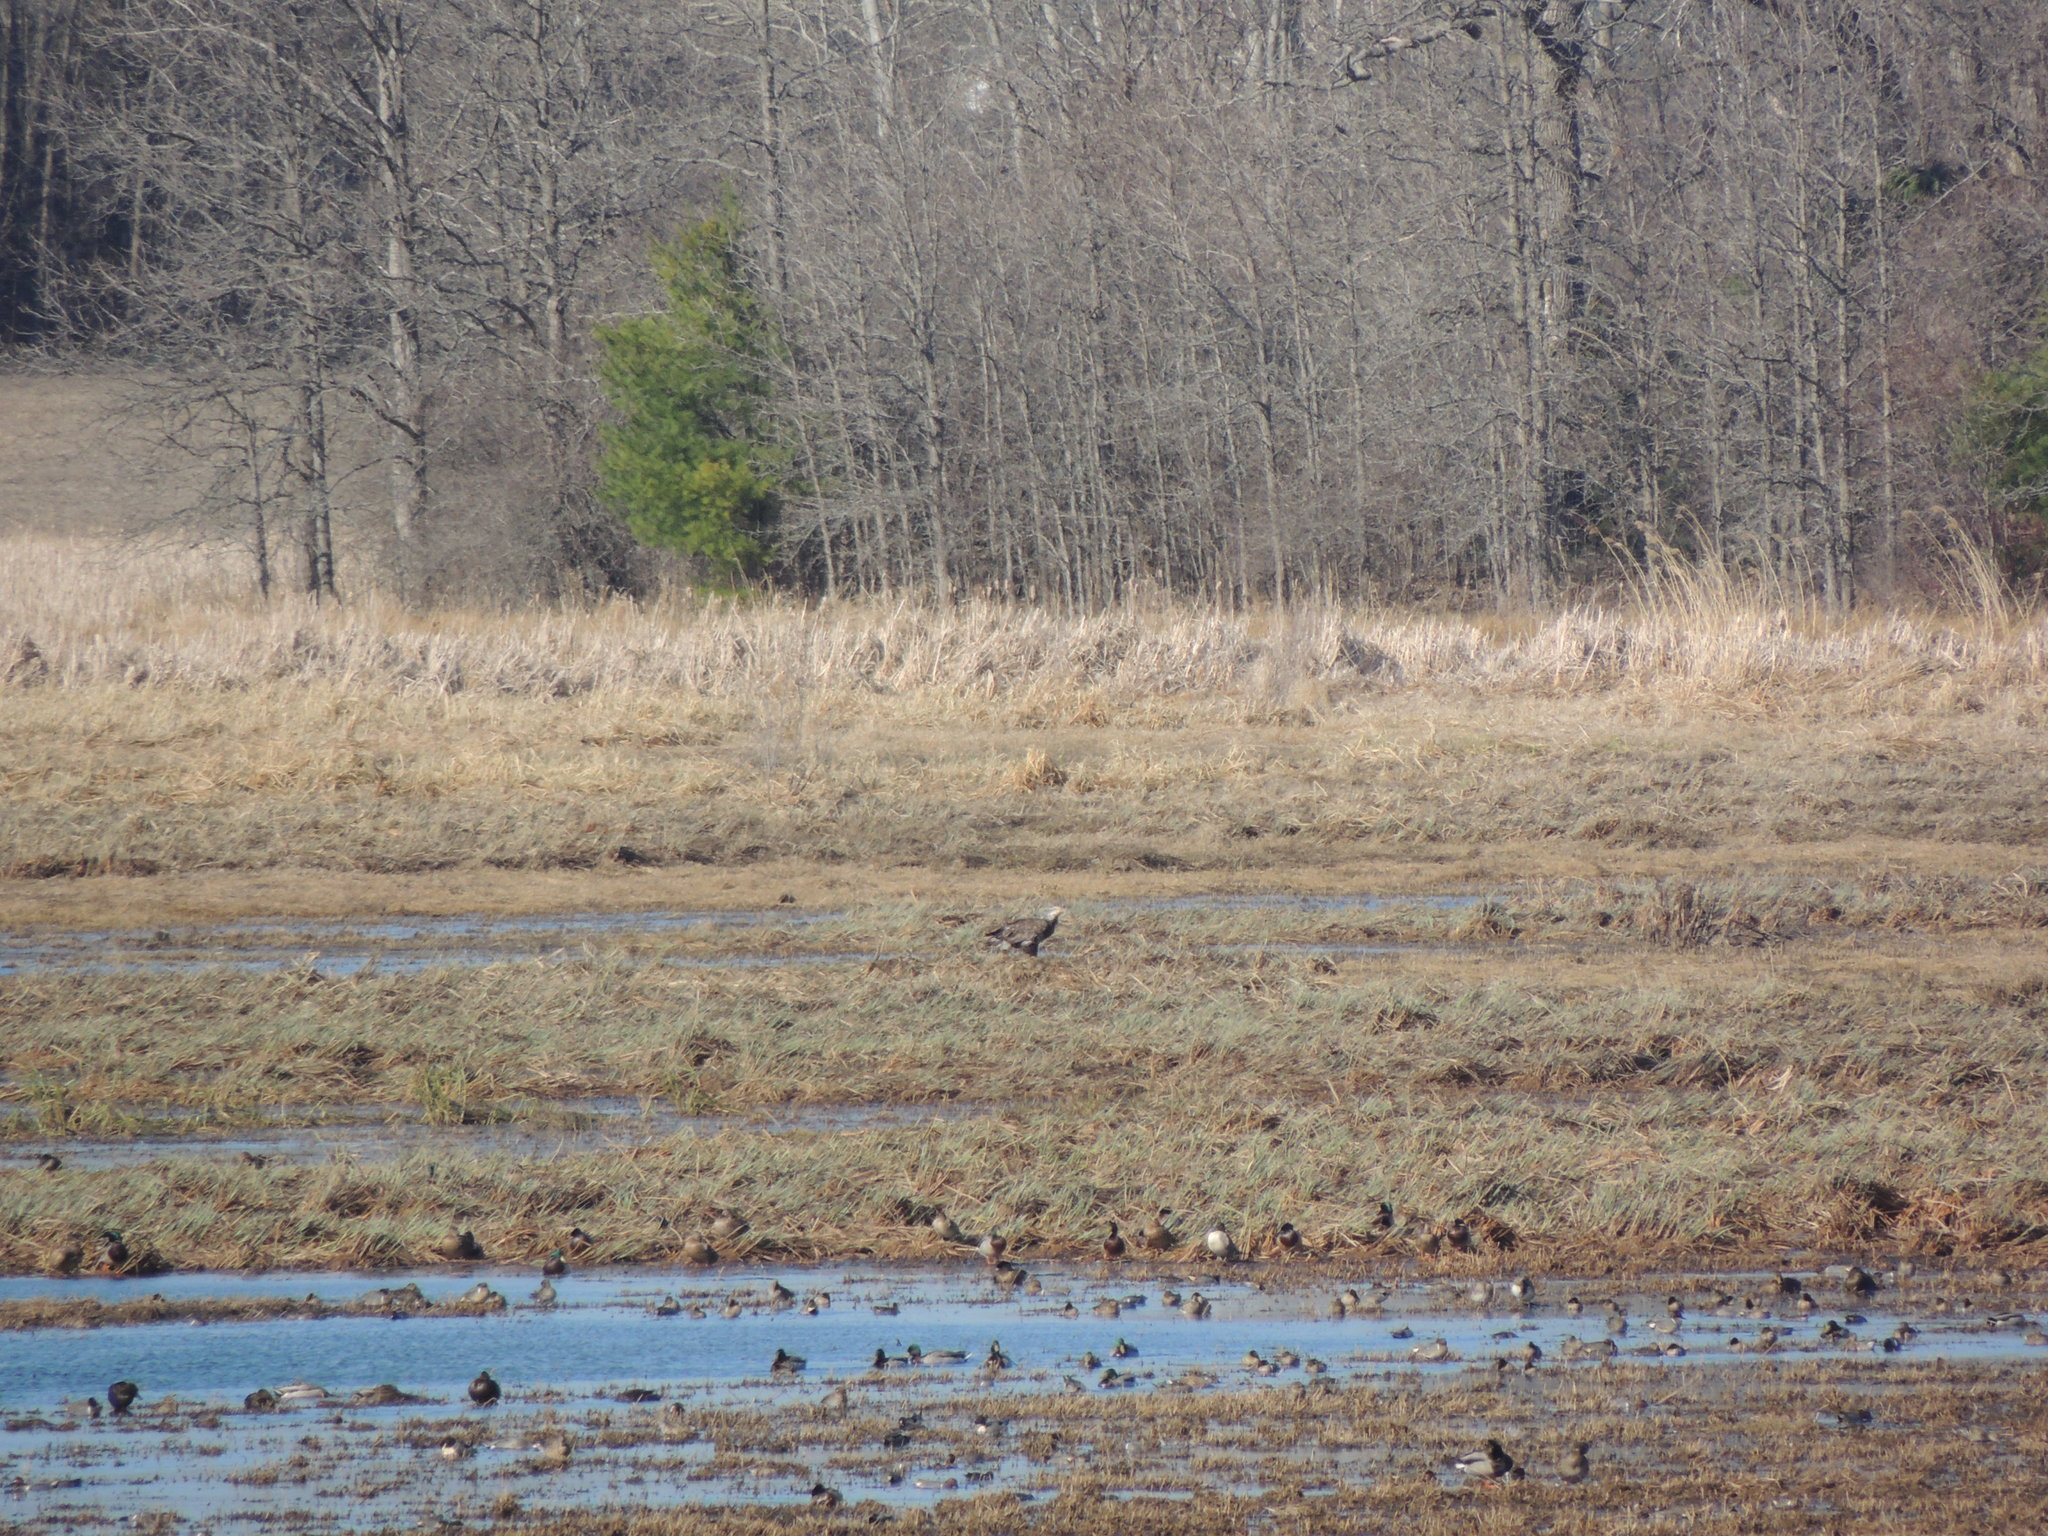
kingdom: Animalia
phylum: Chordata
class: Aves
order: Accipitriformes
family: Accipitridae
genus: Haliaeetus
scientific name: Haliaeetus leucocephalus
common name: Bald eagle
